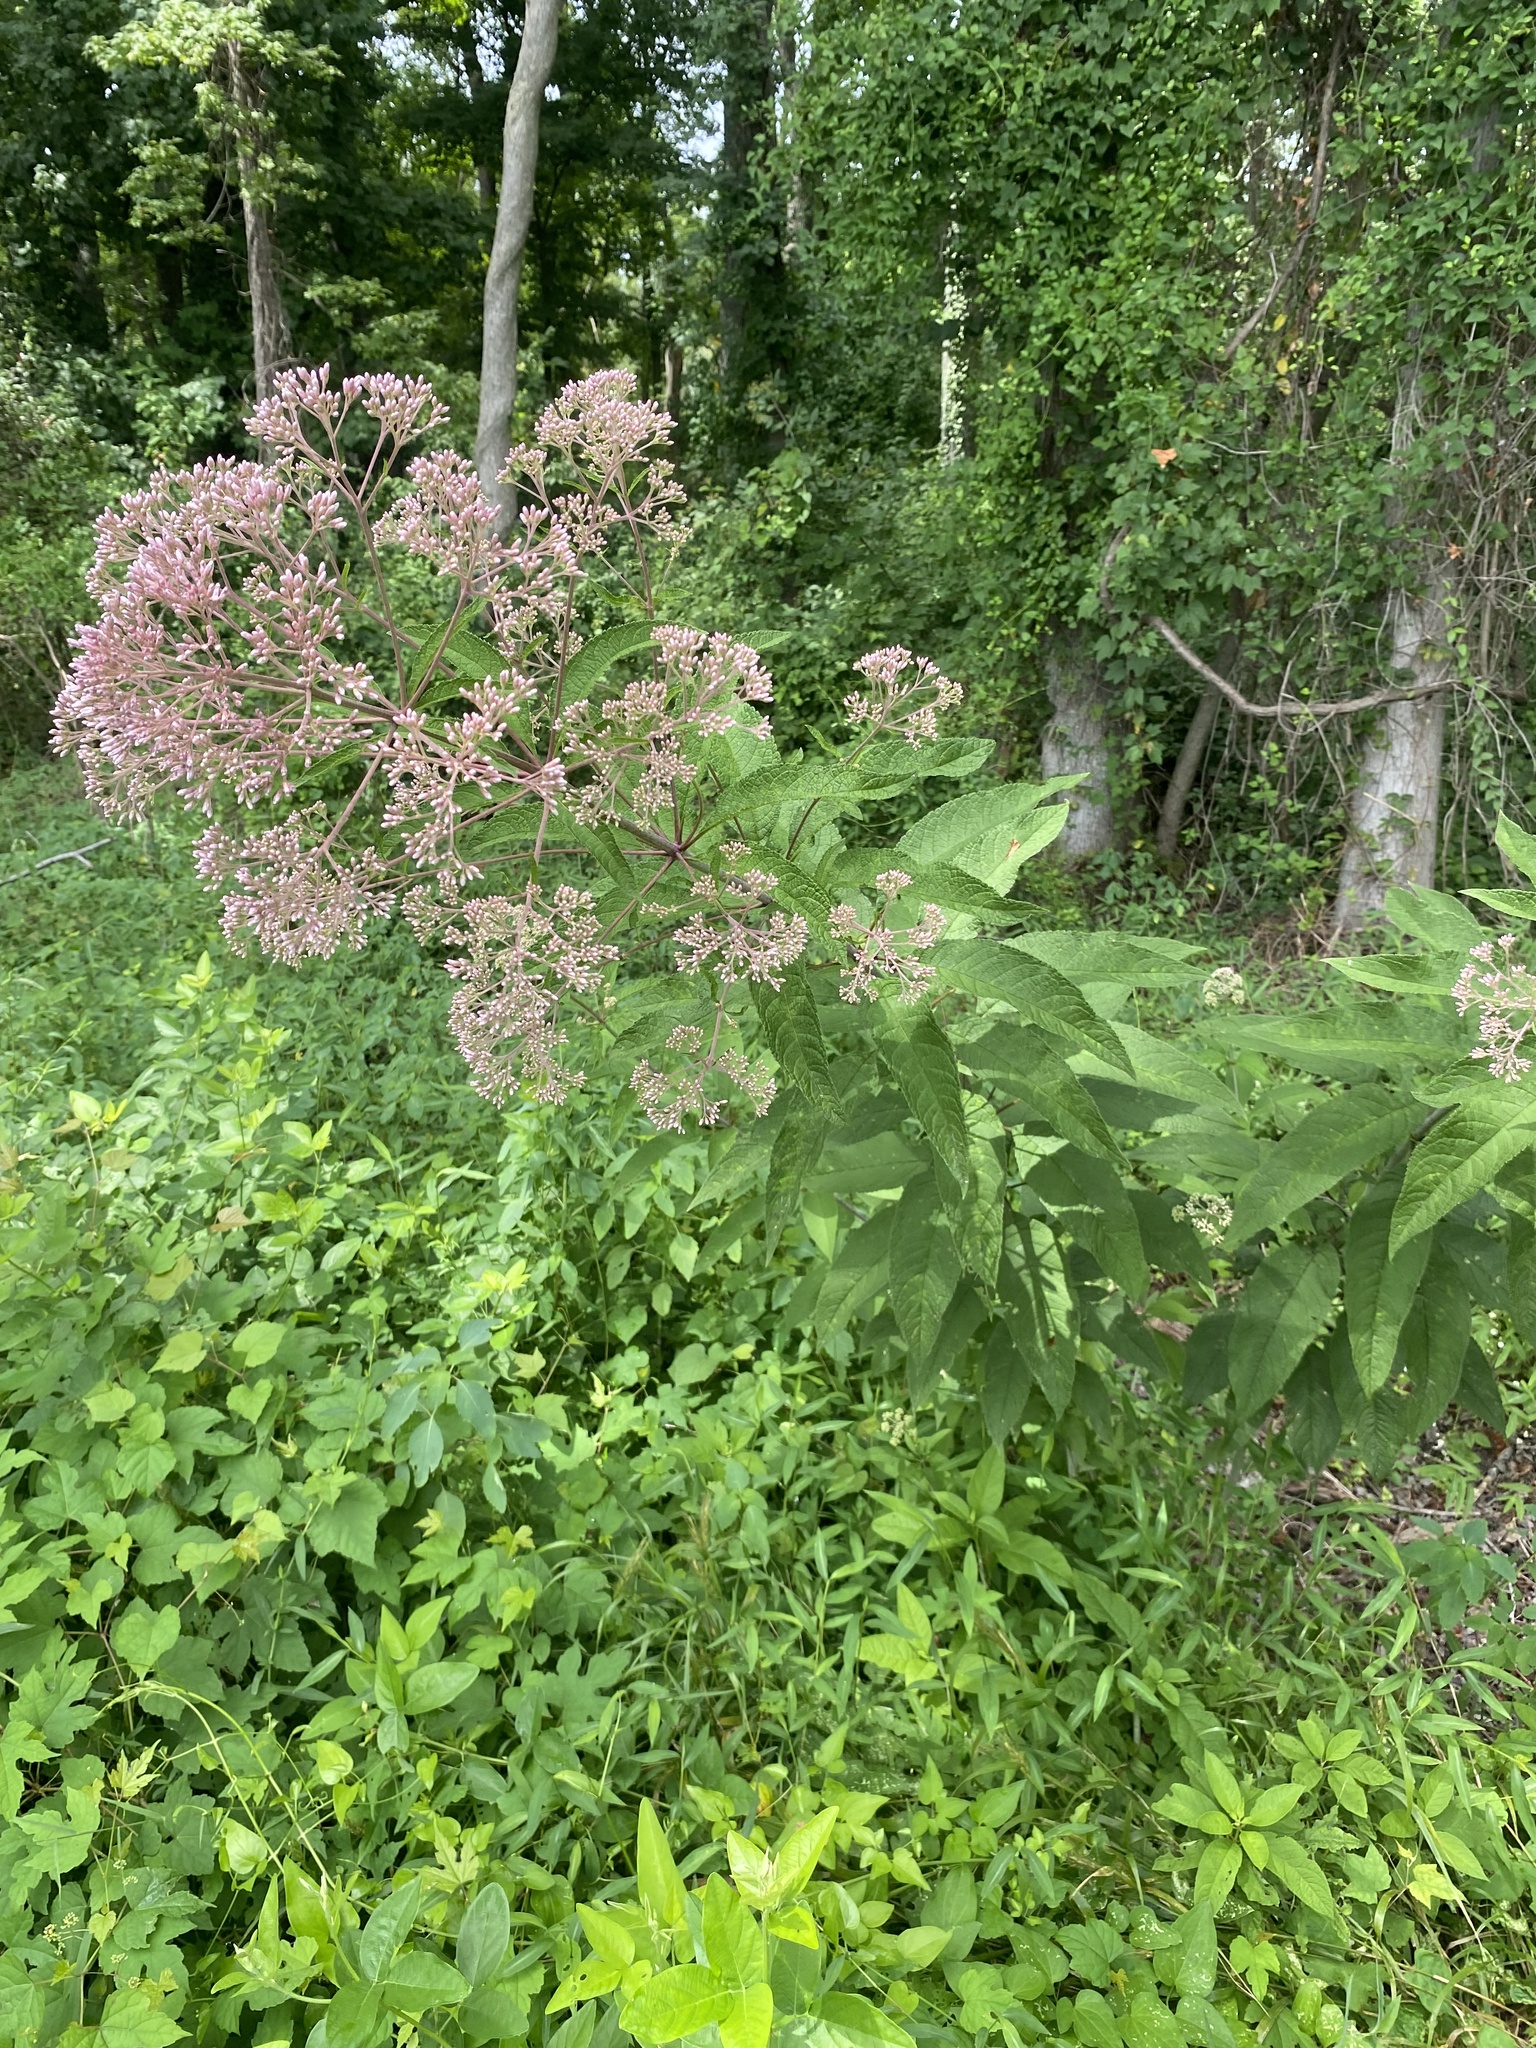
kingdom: Plantae
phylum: Tracheophyta
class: Magnoliopsida
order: Asterales
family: Asteraceae
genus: Eutrochium
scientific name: Eutrochium fistulosum
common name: Trumpetweed
